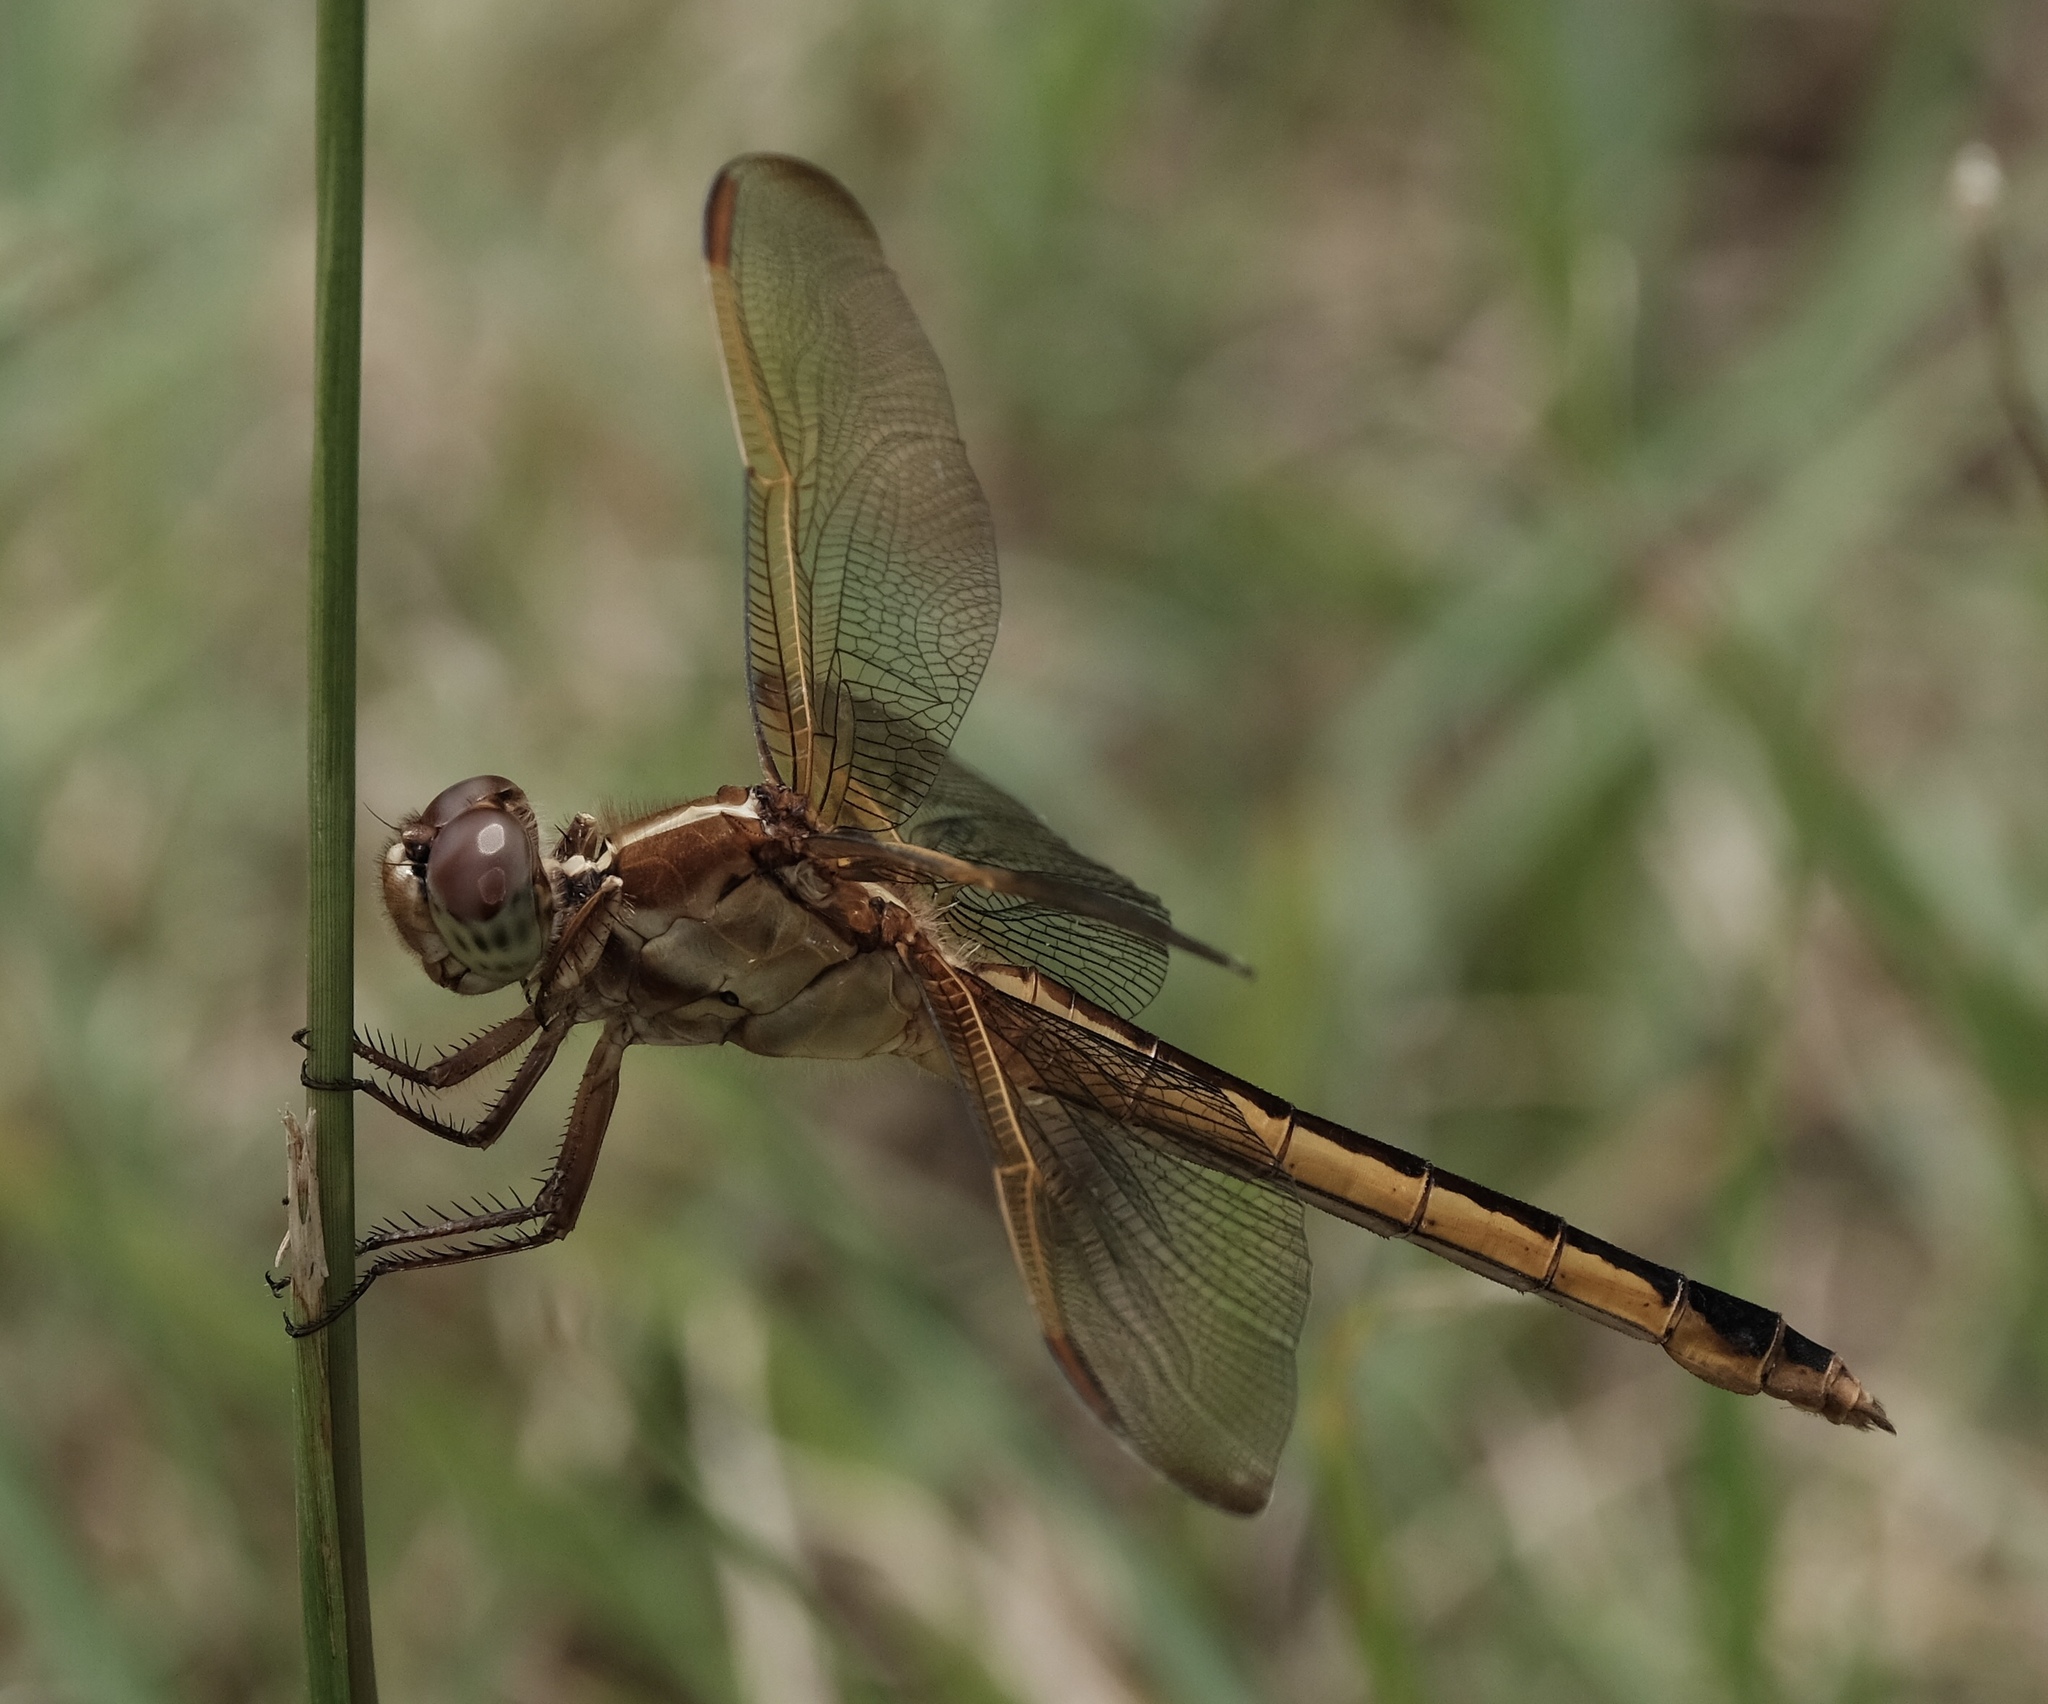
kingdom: Animalia
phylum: Arthropoda
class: Insecta
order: Odonata
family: Libellulidae
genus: Libellula
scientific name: Libellula needhami
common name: Needham's skimmer
